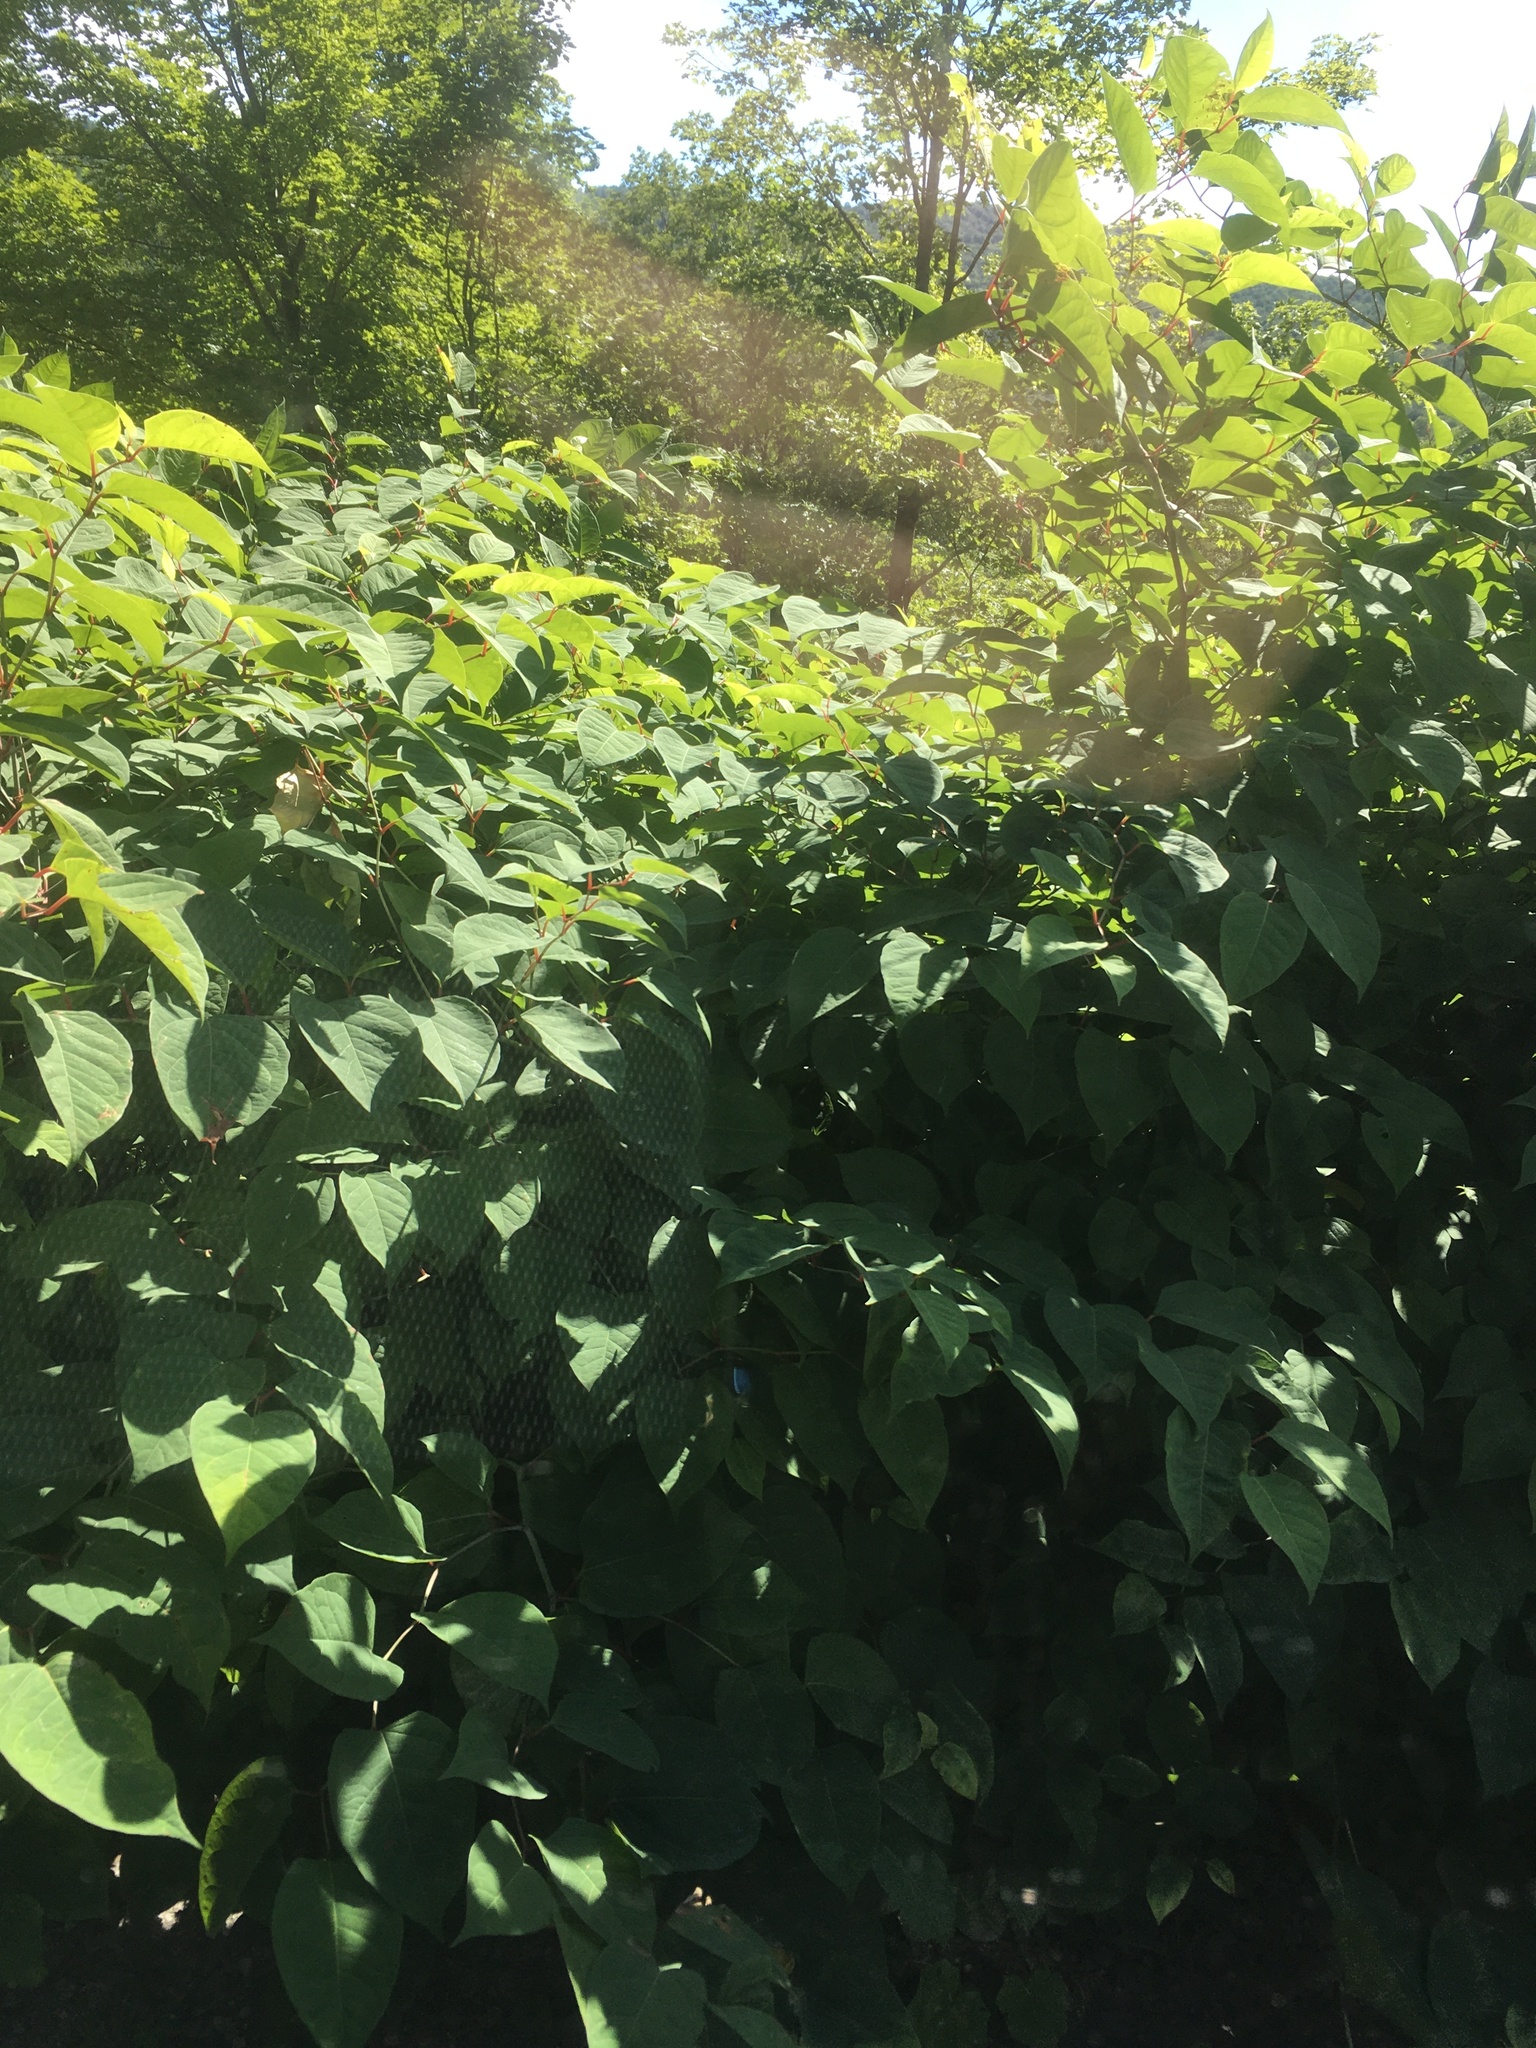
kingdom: Plantae
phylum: Tracheophyta
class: Magnoliopsida
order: Caryophyllales
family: Polygonaceae
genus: Reynoutria
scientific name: Reynoutria japonica
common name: Japanese knotweed
